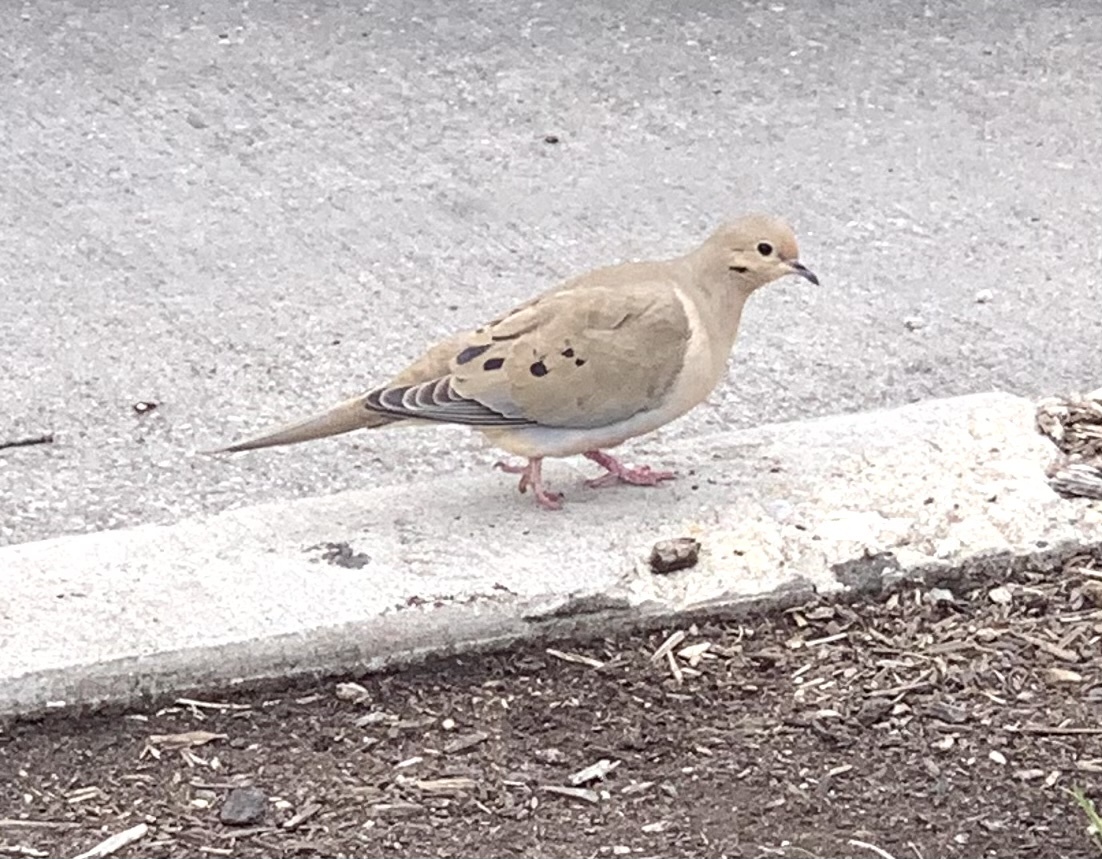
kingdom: Animalia
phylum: Chordata
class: Aves
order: Columbiformes
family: Columbidae
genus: Zenaida
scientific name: Zenaida macroura
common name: Mourning dove
